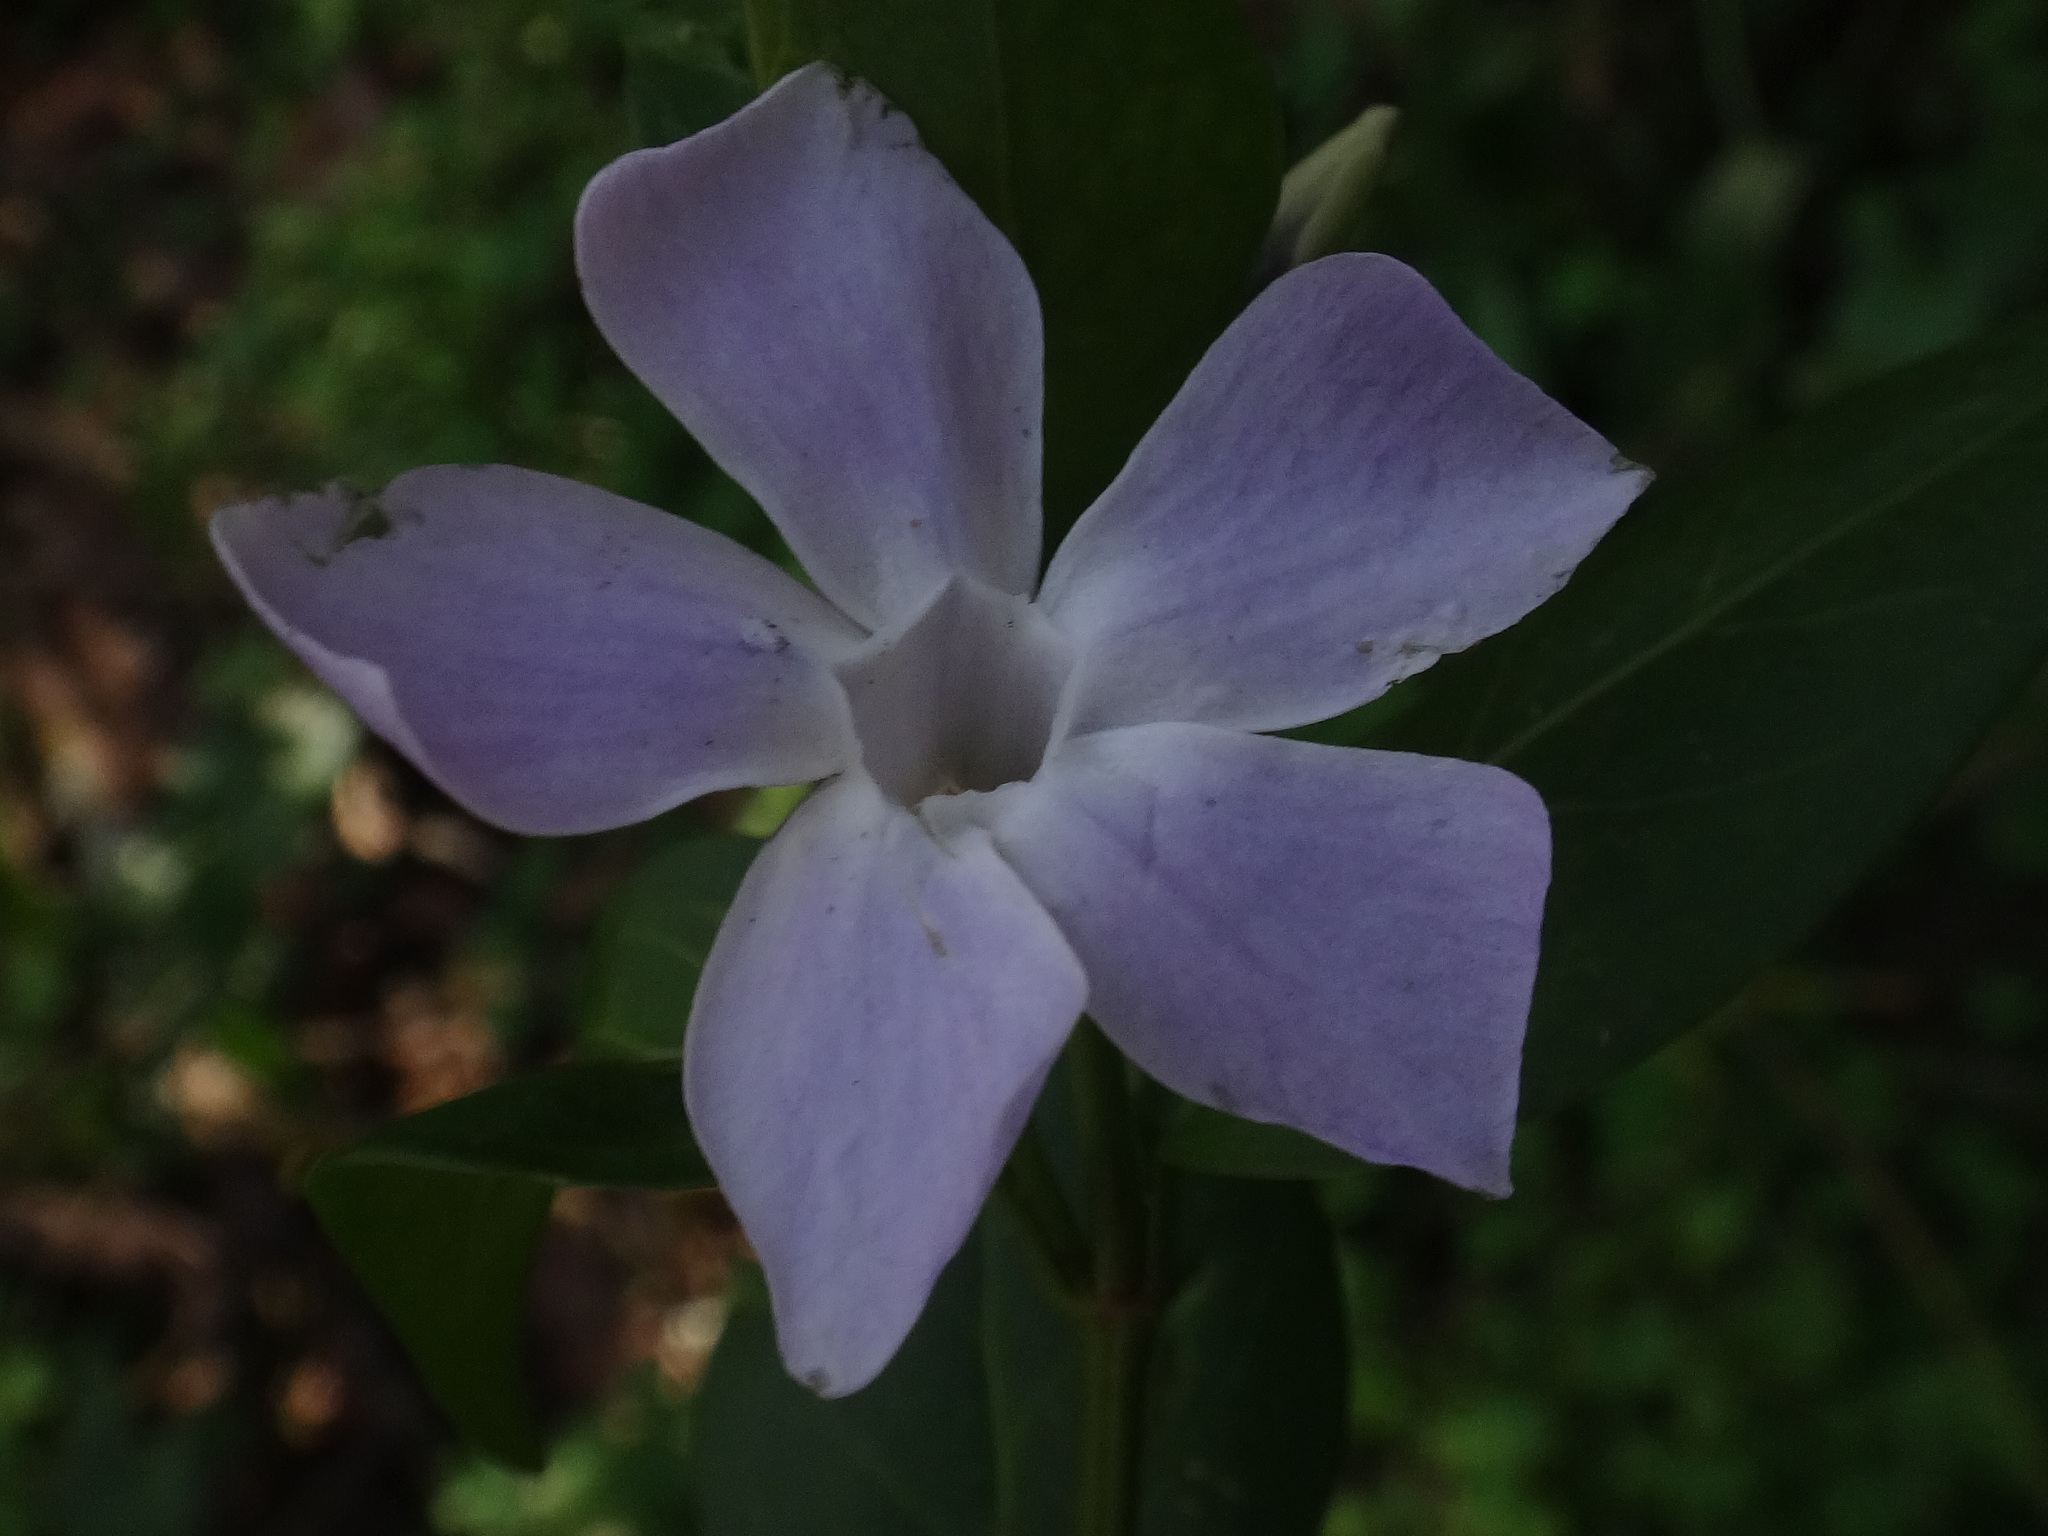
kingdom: Plantae
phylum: Tracheophyta
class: Magnoliopsida
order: Gentianales
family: Apocynaceae
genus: Vinca
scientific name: Vinca difformis
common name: Intermediate periwinkle
